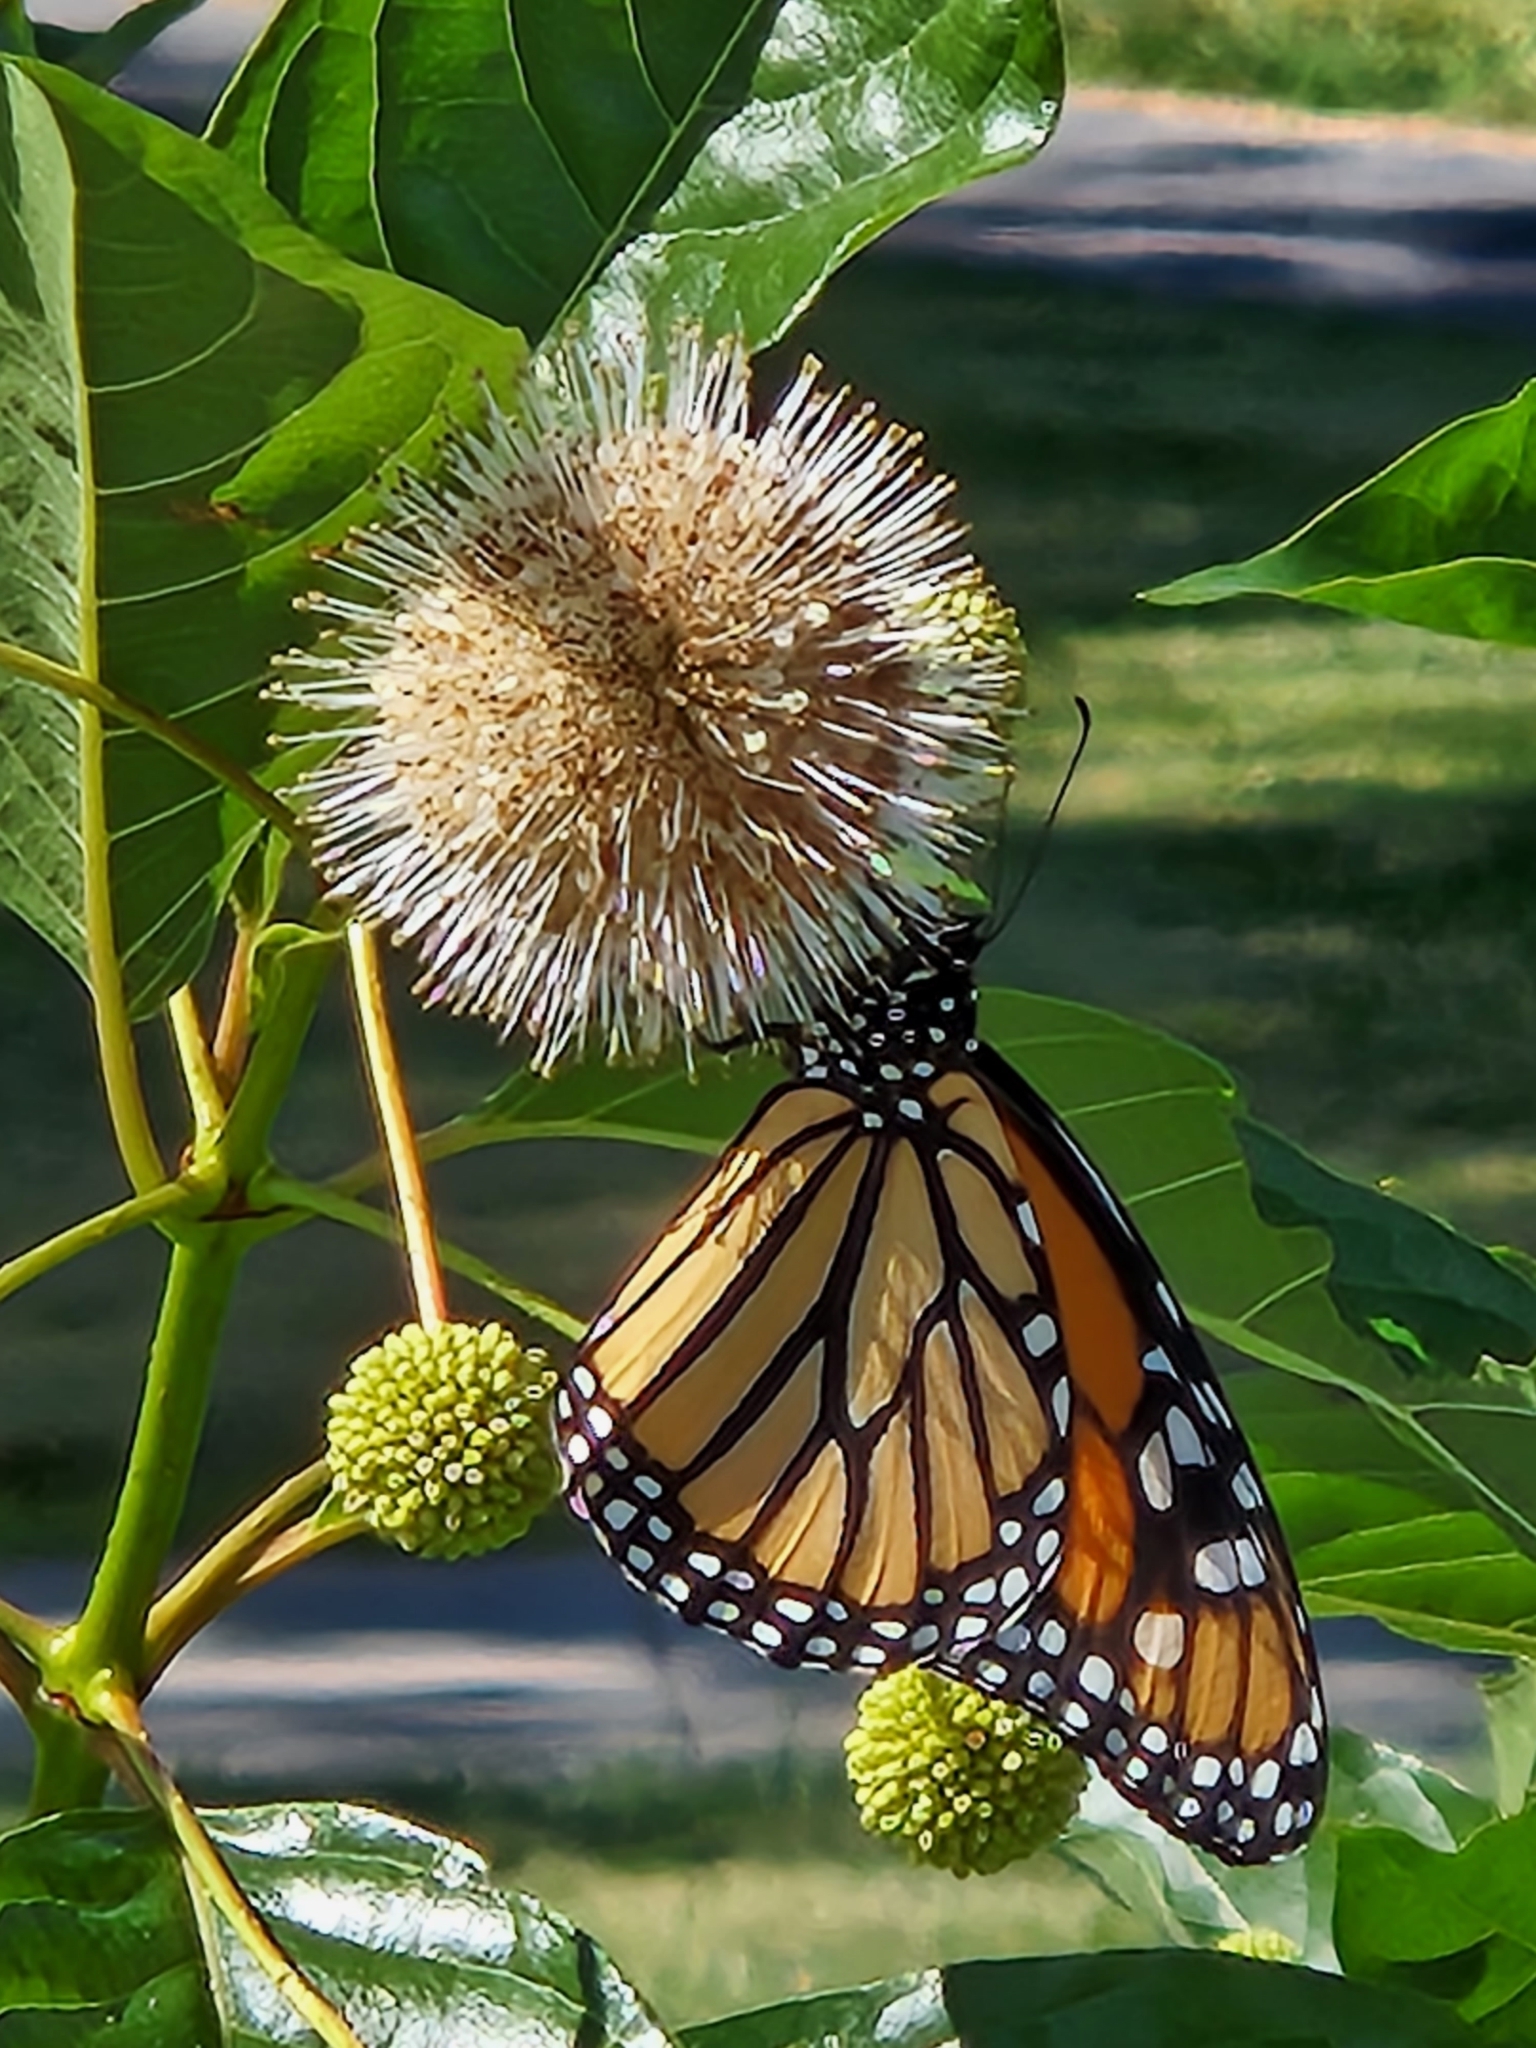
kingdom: Animalia
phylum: Arthropoda
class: Insecta
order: Lepidoptera
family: Nymphalidae
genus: Danaus
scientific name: Danaus plexippus
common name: Monarch
